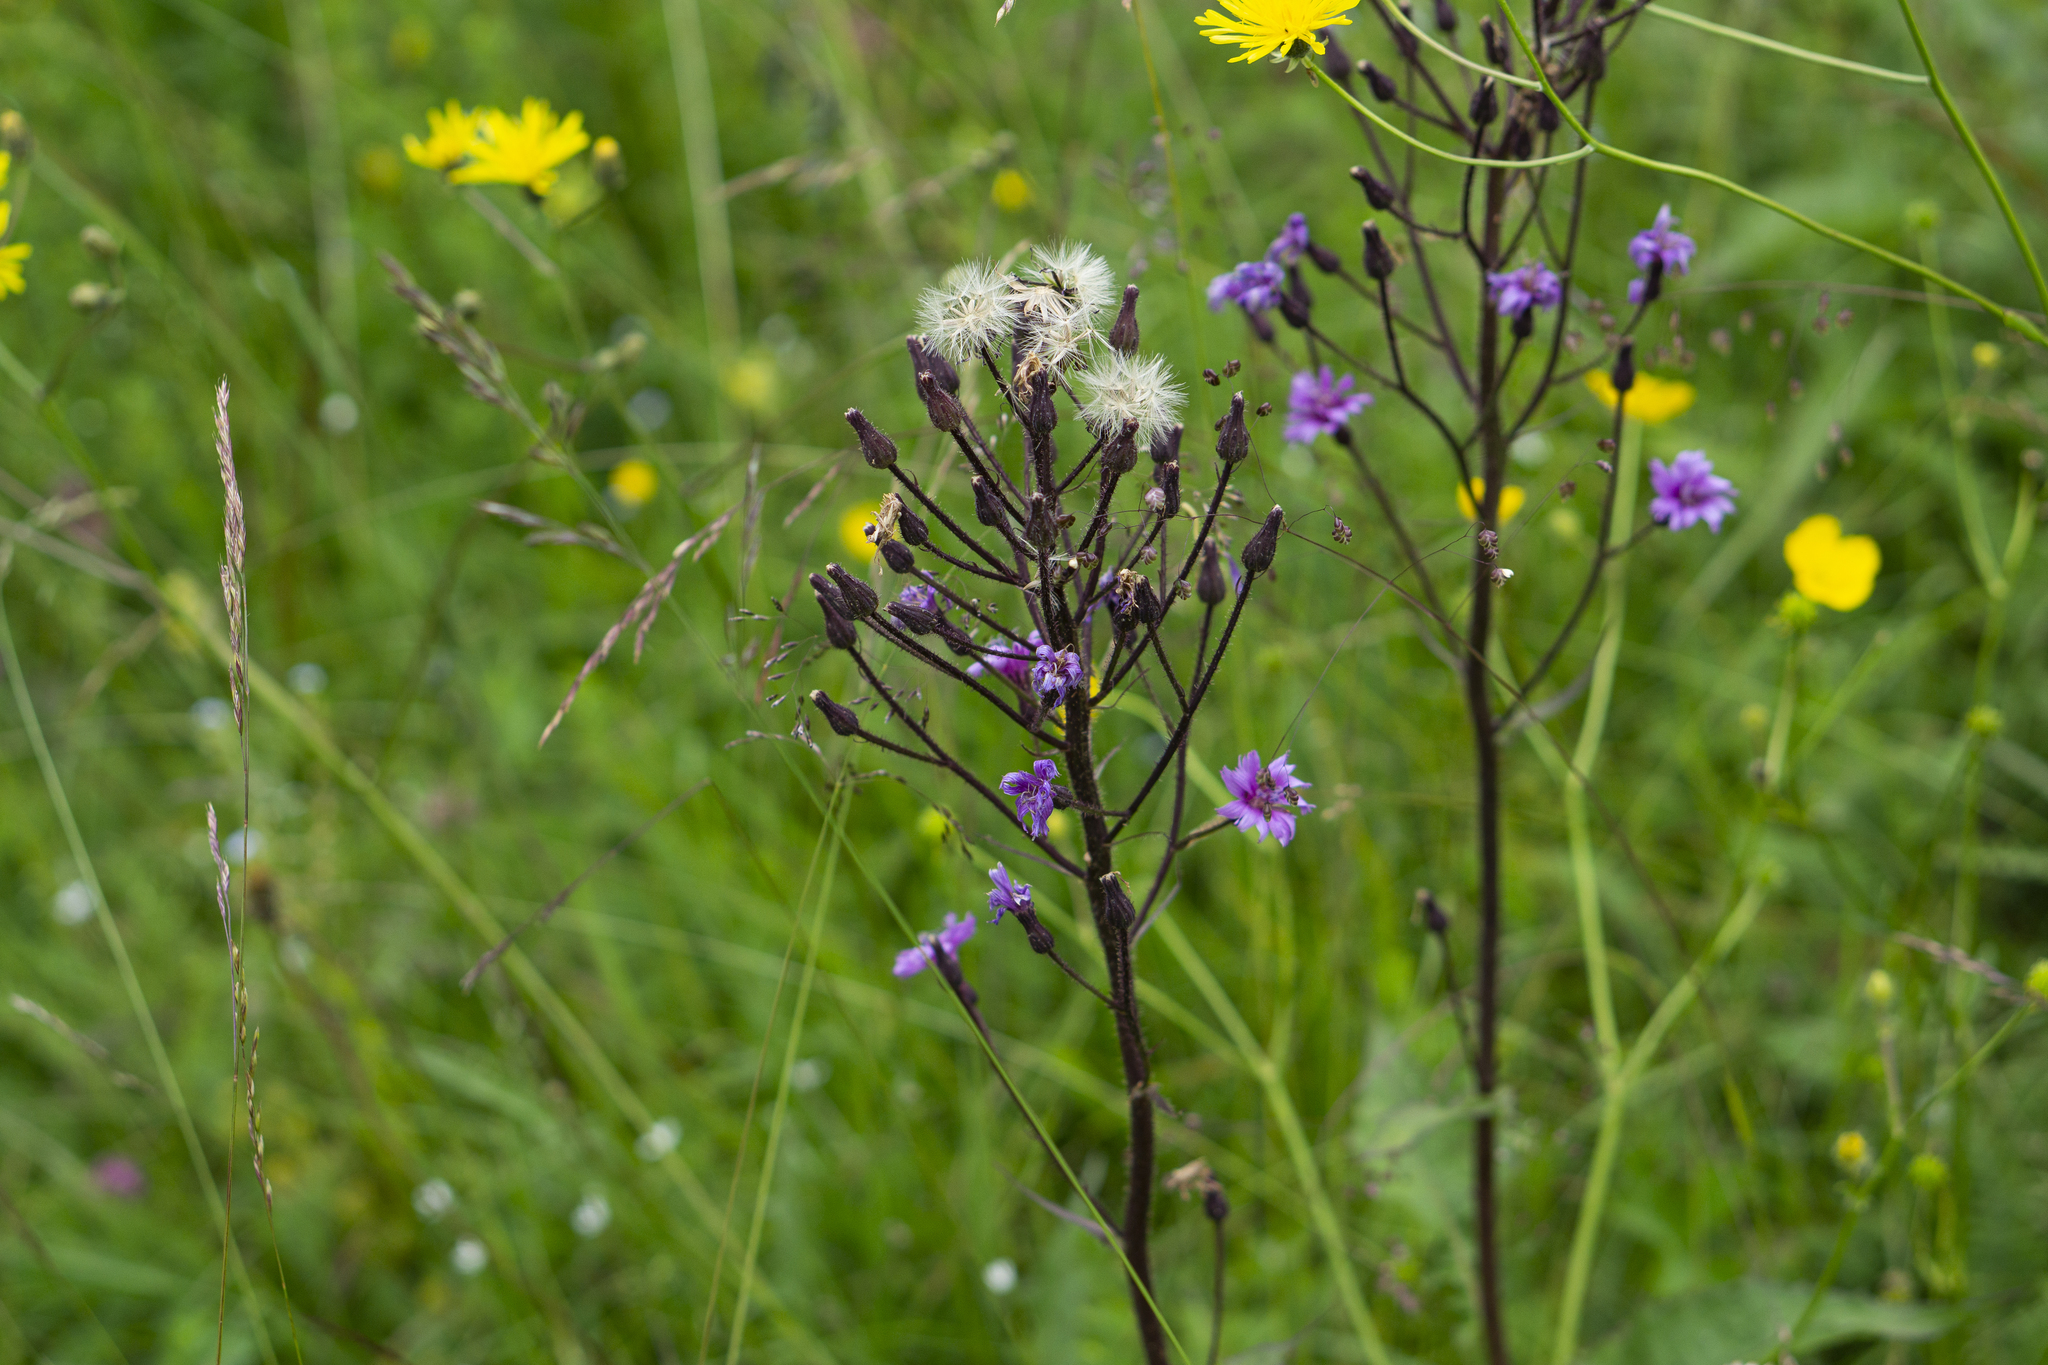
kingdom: Plantae
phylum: Tracheophyta
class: Magnoliopsida
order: Asterales
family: Asteraceae
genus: Cicerbita
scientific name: Cicerbita alpina
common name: Alpine blue-sow-thistle
